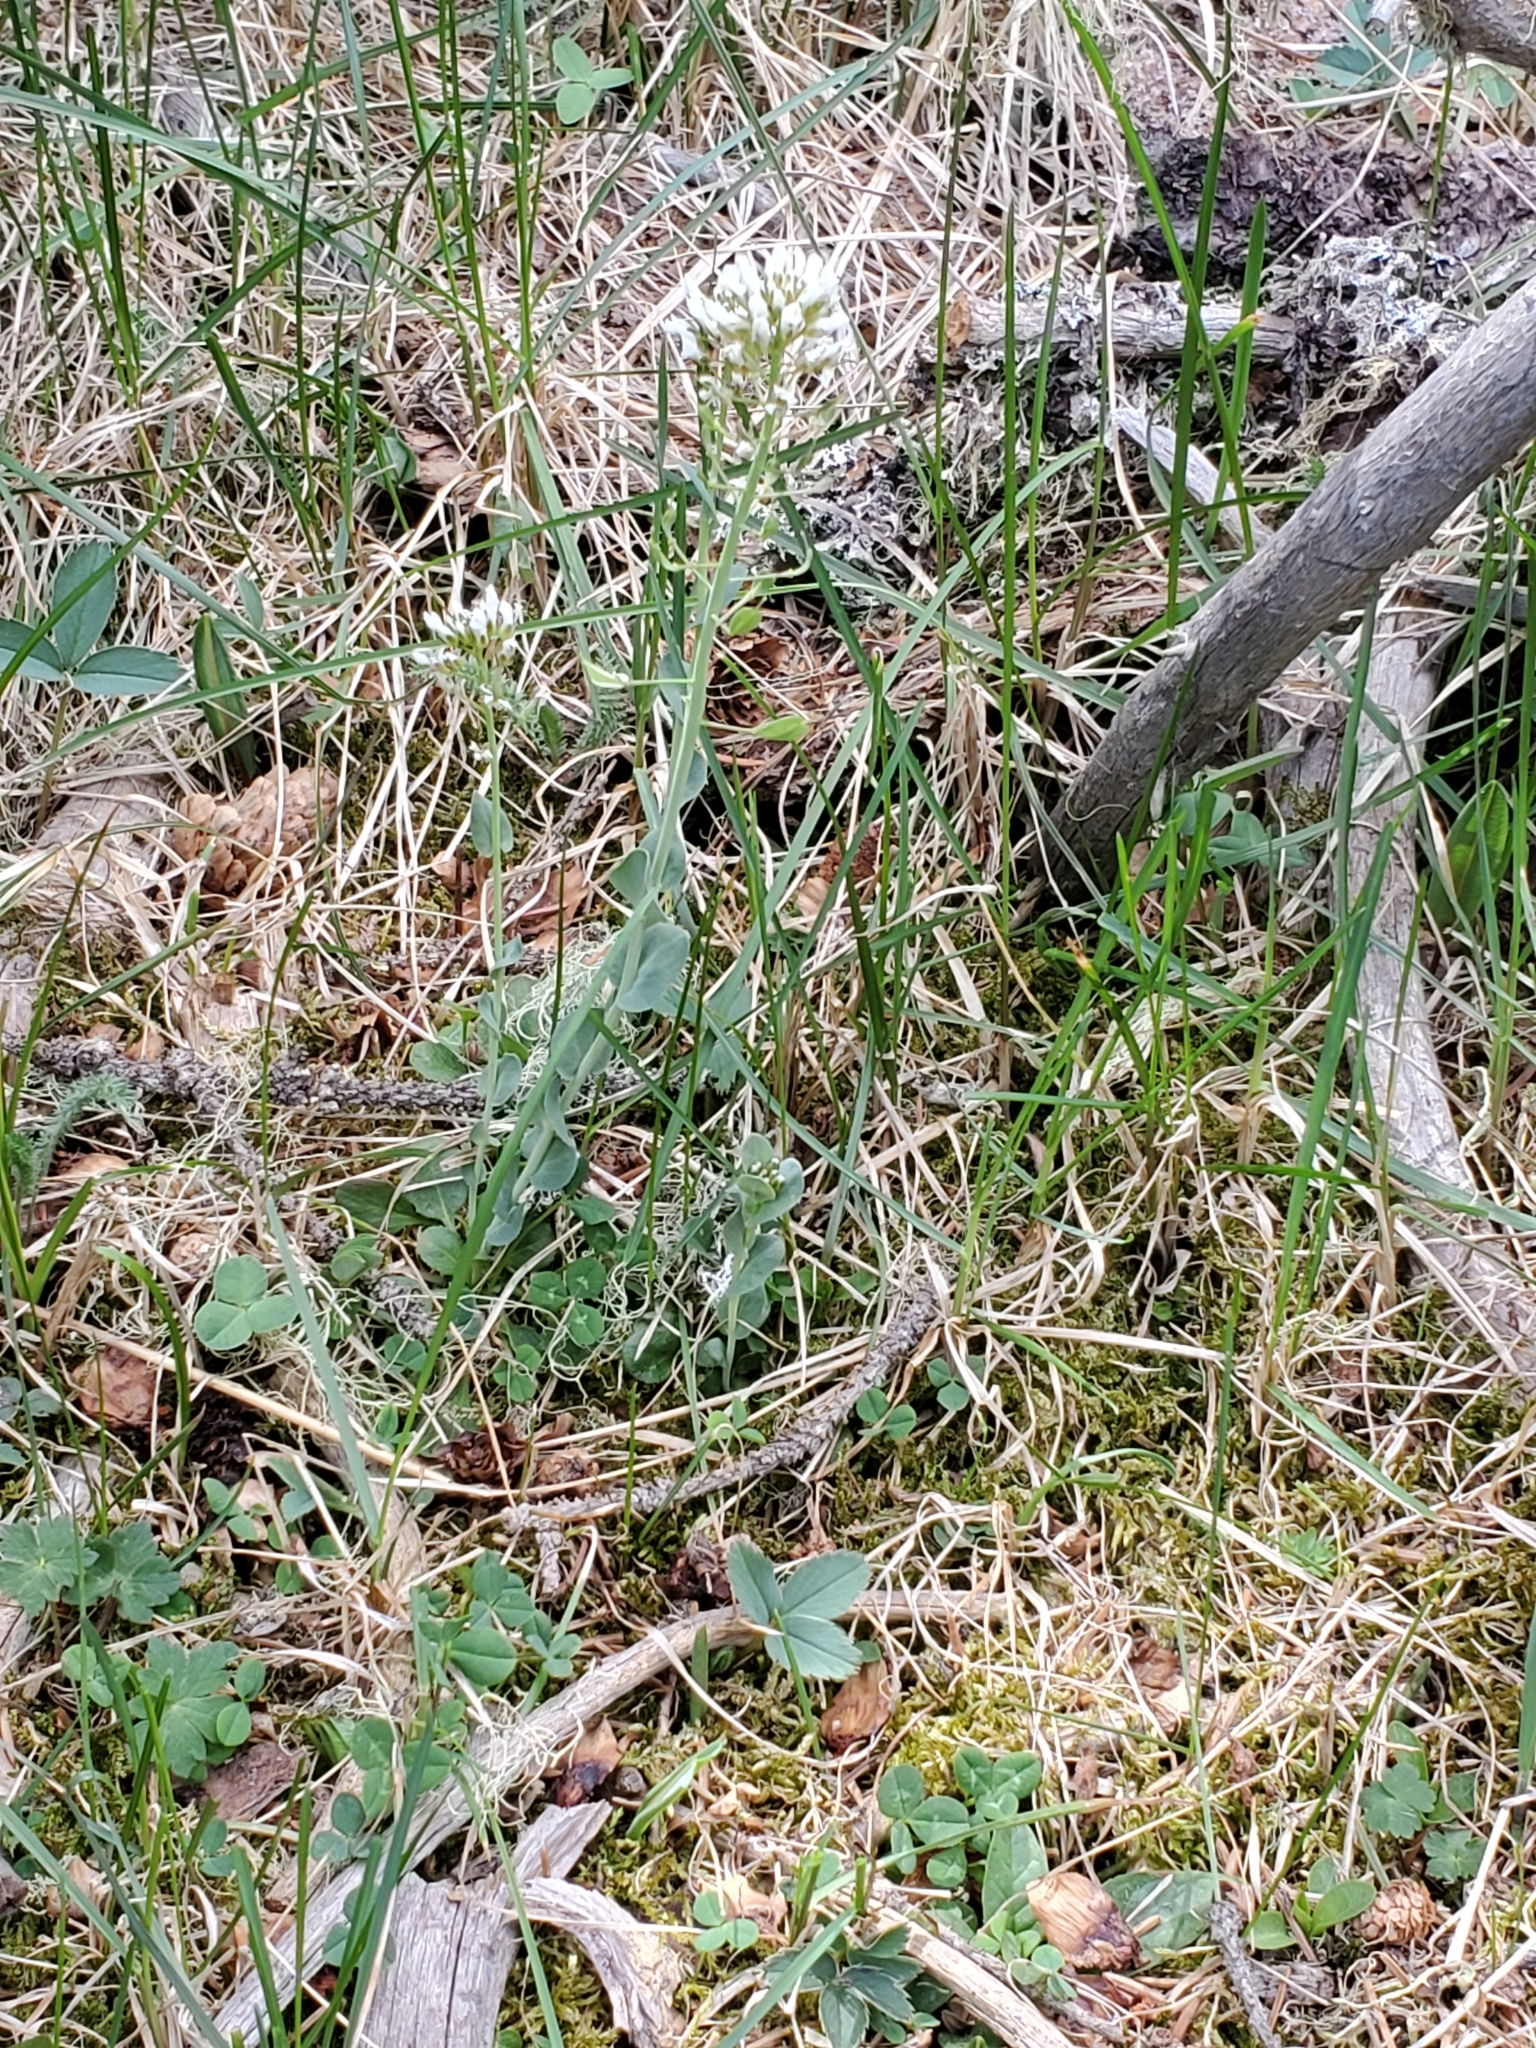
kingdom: Plantae
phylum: Tracheophyta
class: Magnoliopsida
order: Brassicales
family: Brassicaceae
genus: Noccaea
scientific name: Noccaea fendleri
